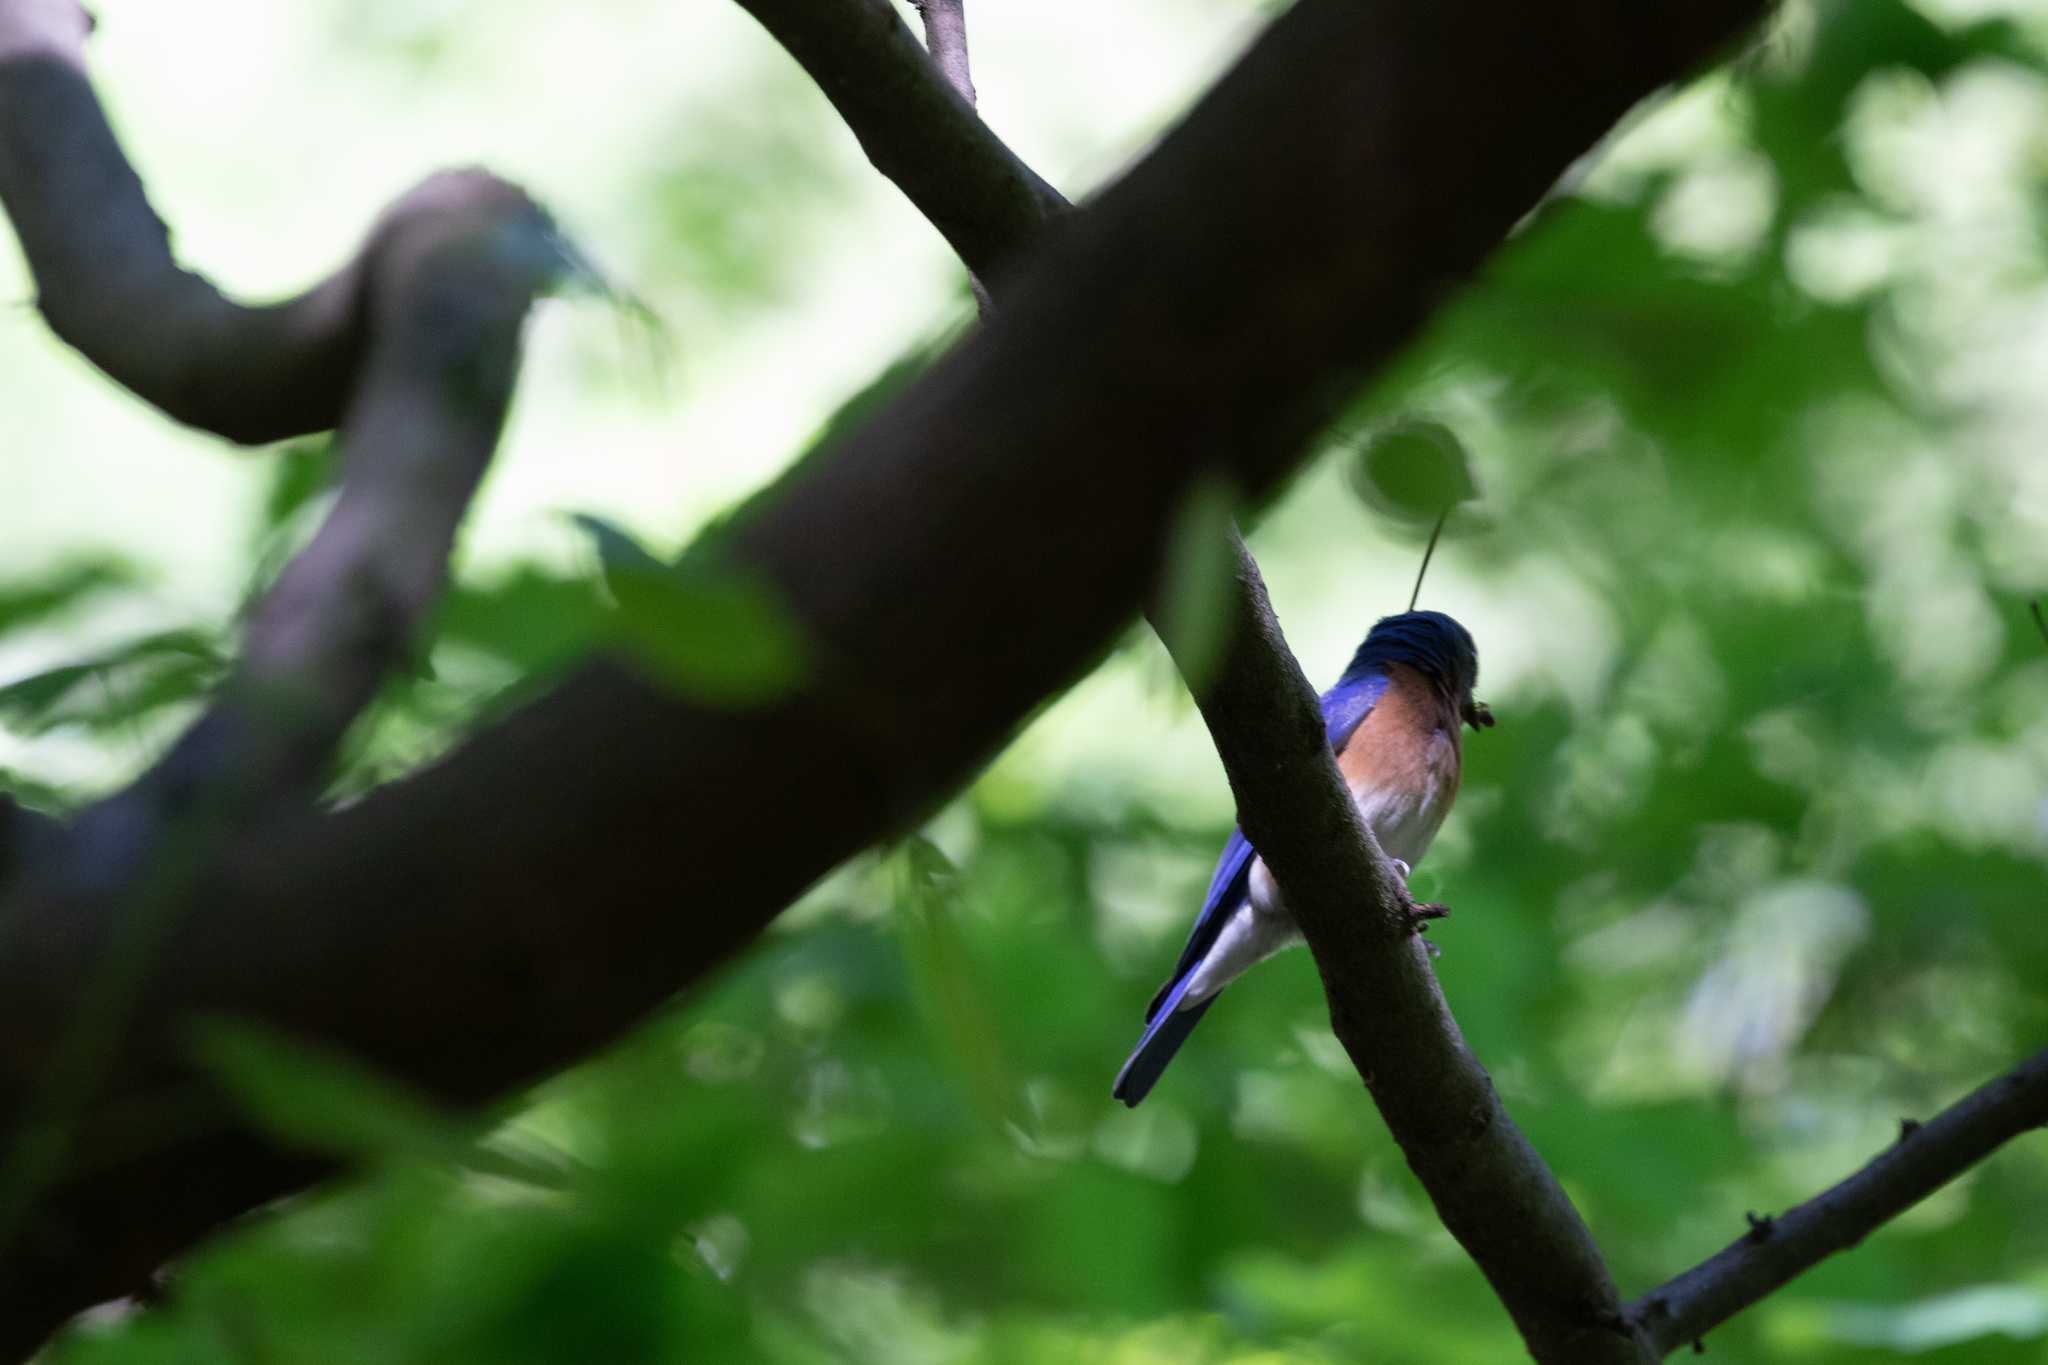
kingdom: Animalia
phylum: Chordata
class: Aves
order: Passeriformes
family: Turdidae
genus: Sialia
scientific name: Sialia sialis
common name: Eastern bluebird
